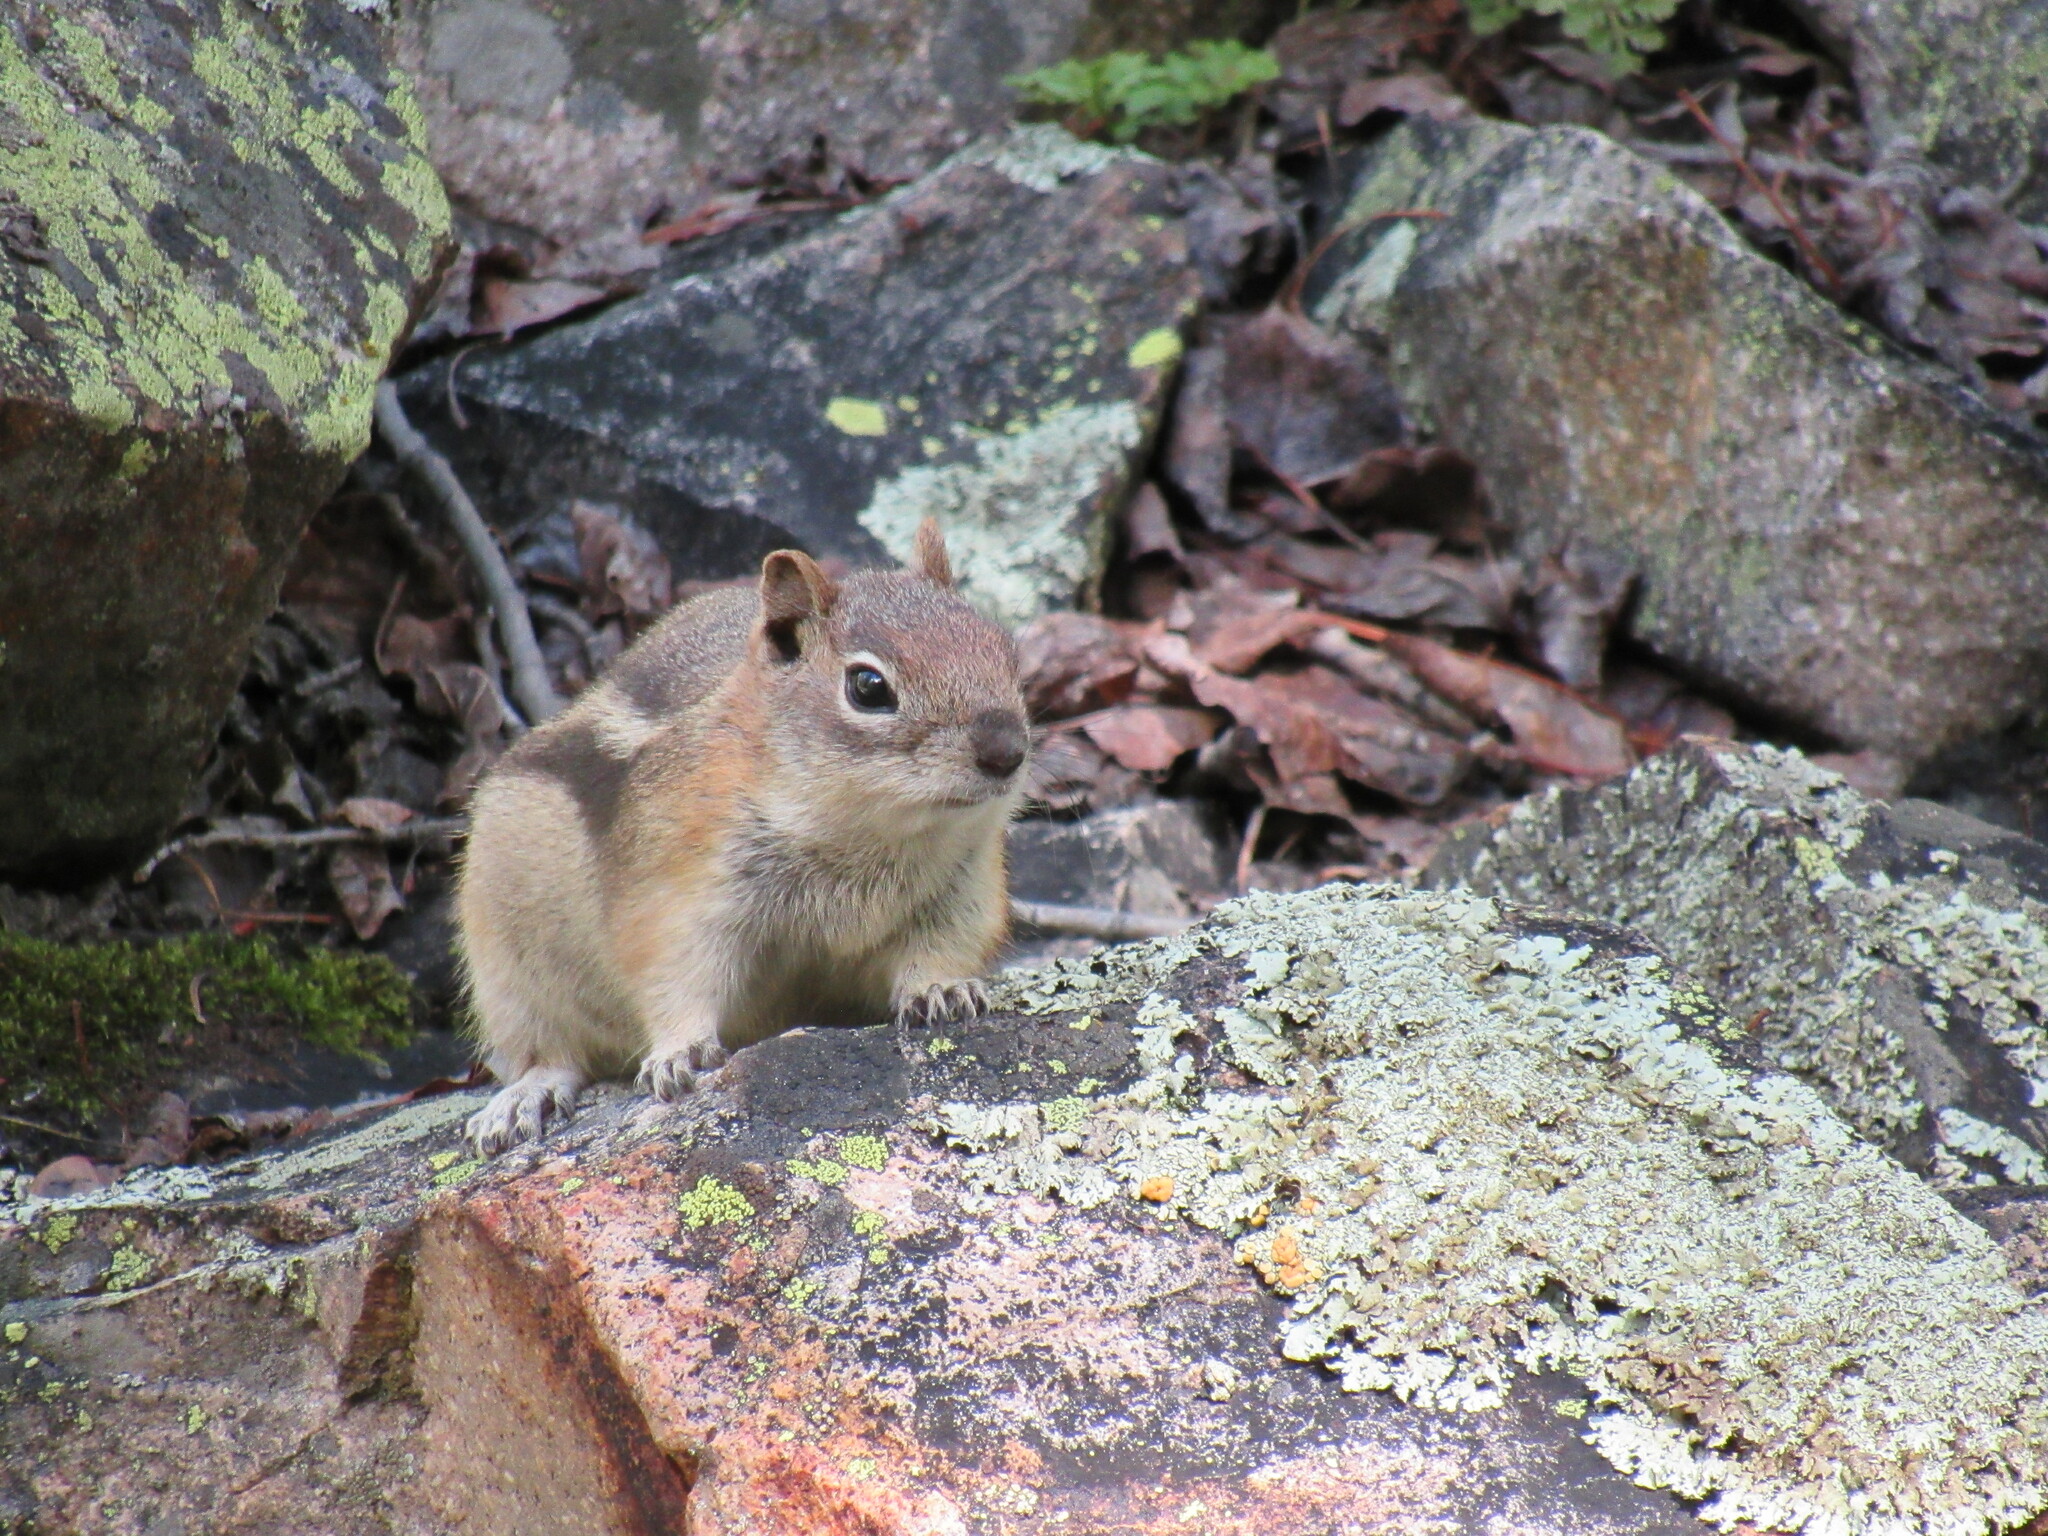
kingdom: Animalia
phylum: Chordata
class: Mammalia
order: Rodentia
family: Sciuridae
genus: Callospermophilus
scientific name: Callospermophilus lateralis
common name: Golden-mantled ground squirrel
